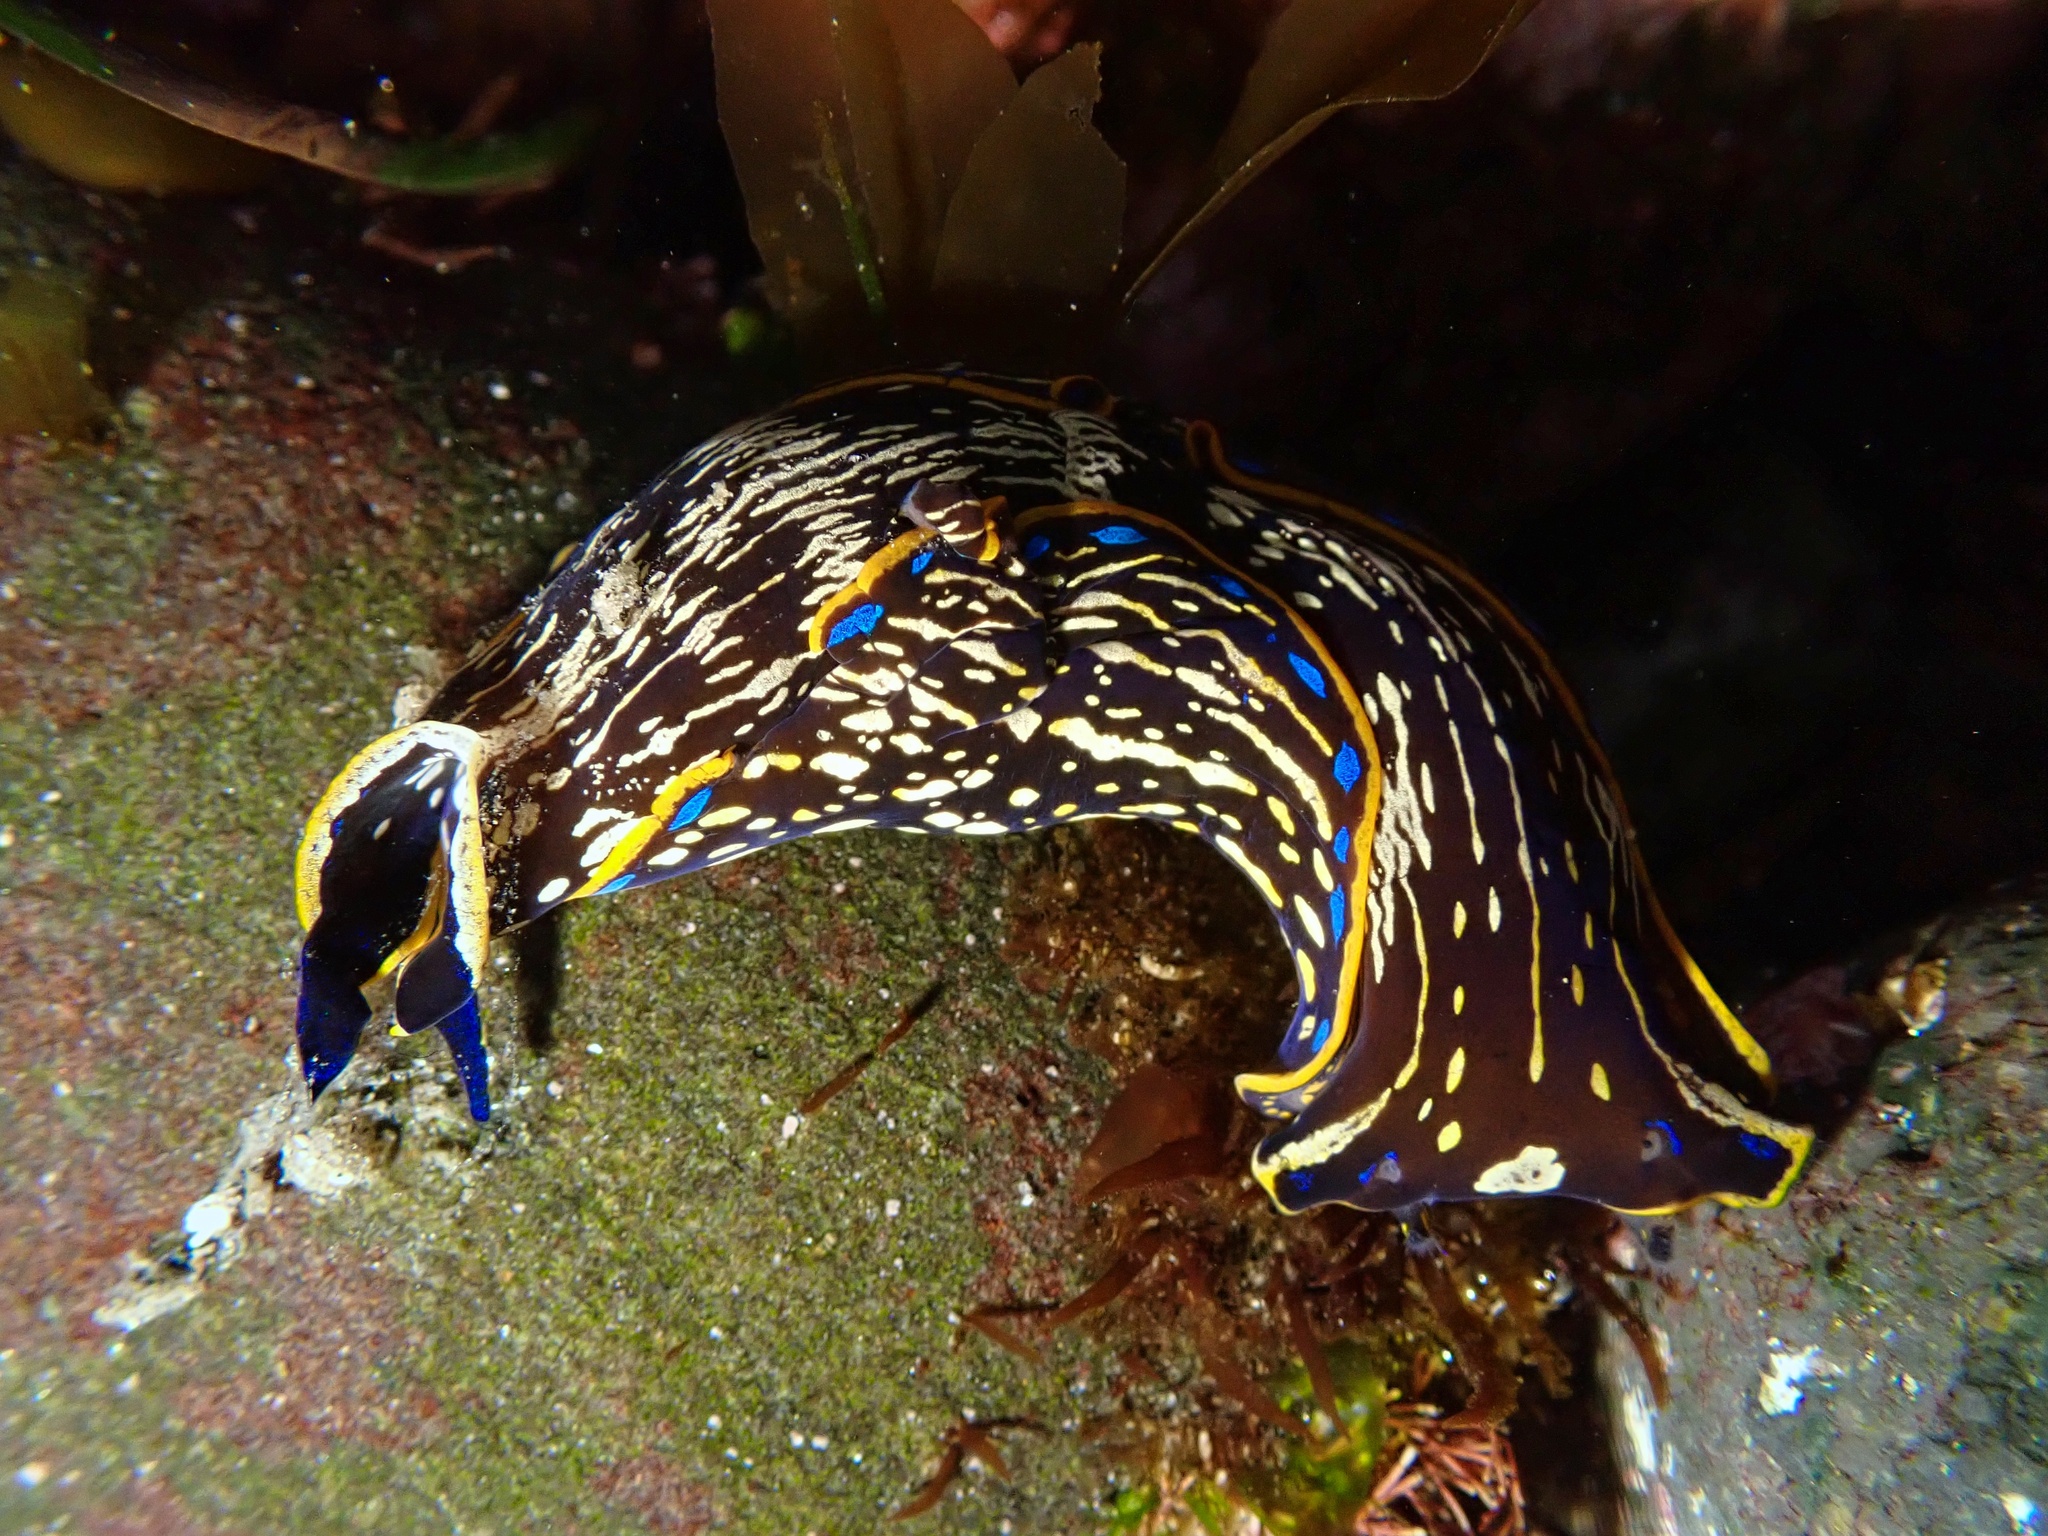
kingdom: Animalia
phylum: Mollusca
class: Gastropoda
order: Cephalaspidea
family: Aglajidae
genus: Navanax
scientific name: Navanax inermis
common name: California aglaja
